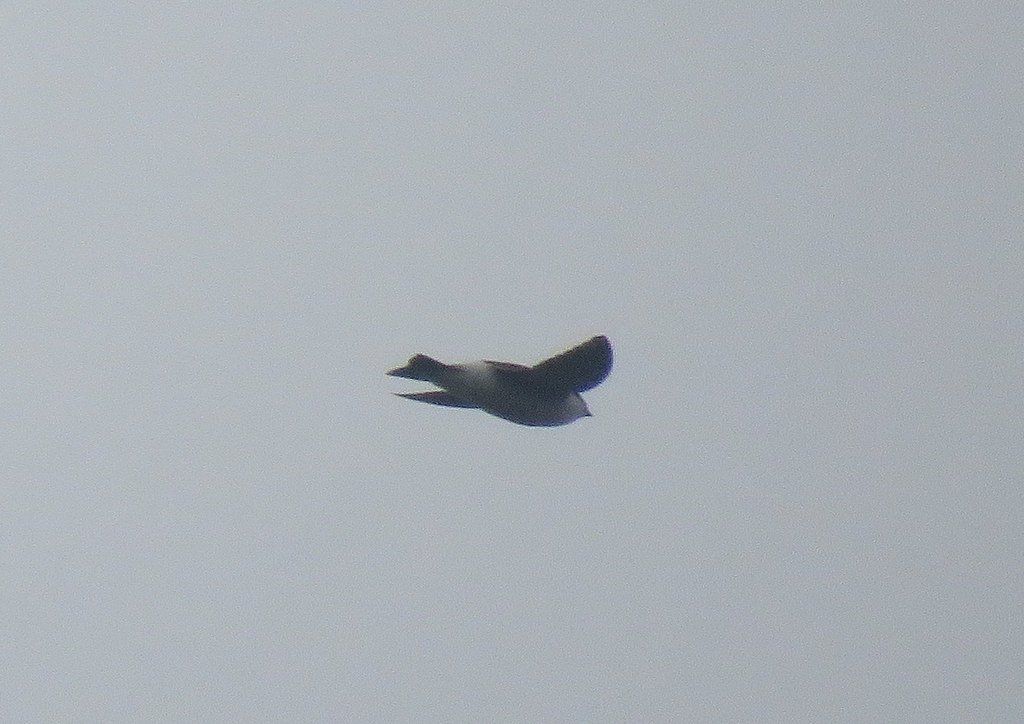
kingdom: Animalia
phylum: Chordata
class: Aves
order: Passeriformes
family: Hirundinidae
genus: Tachycineta
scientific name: Tachycineta
